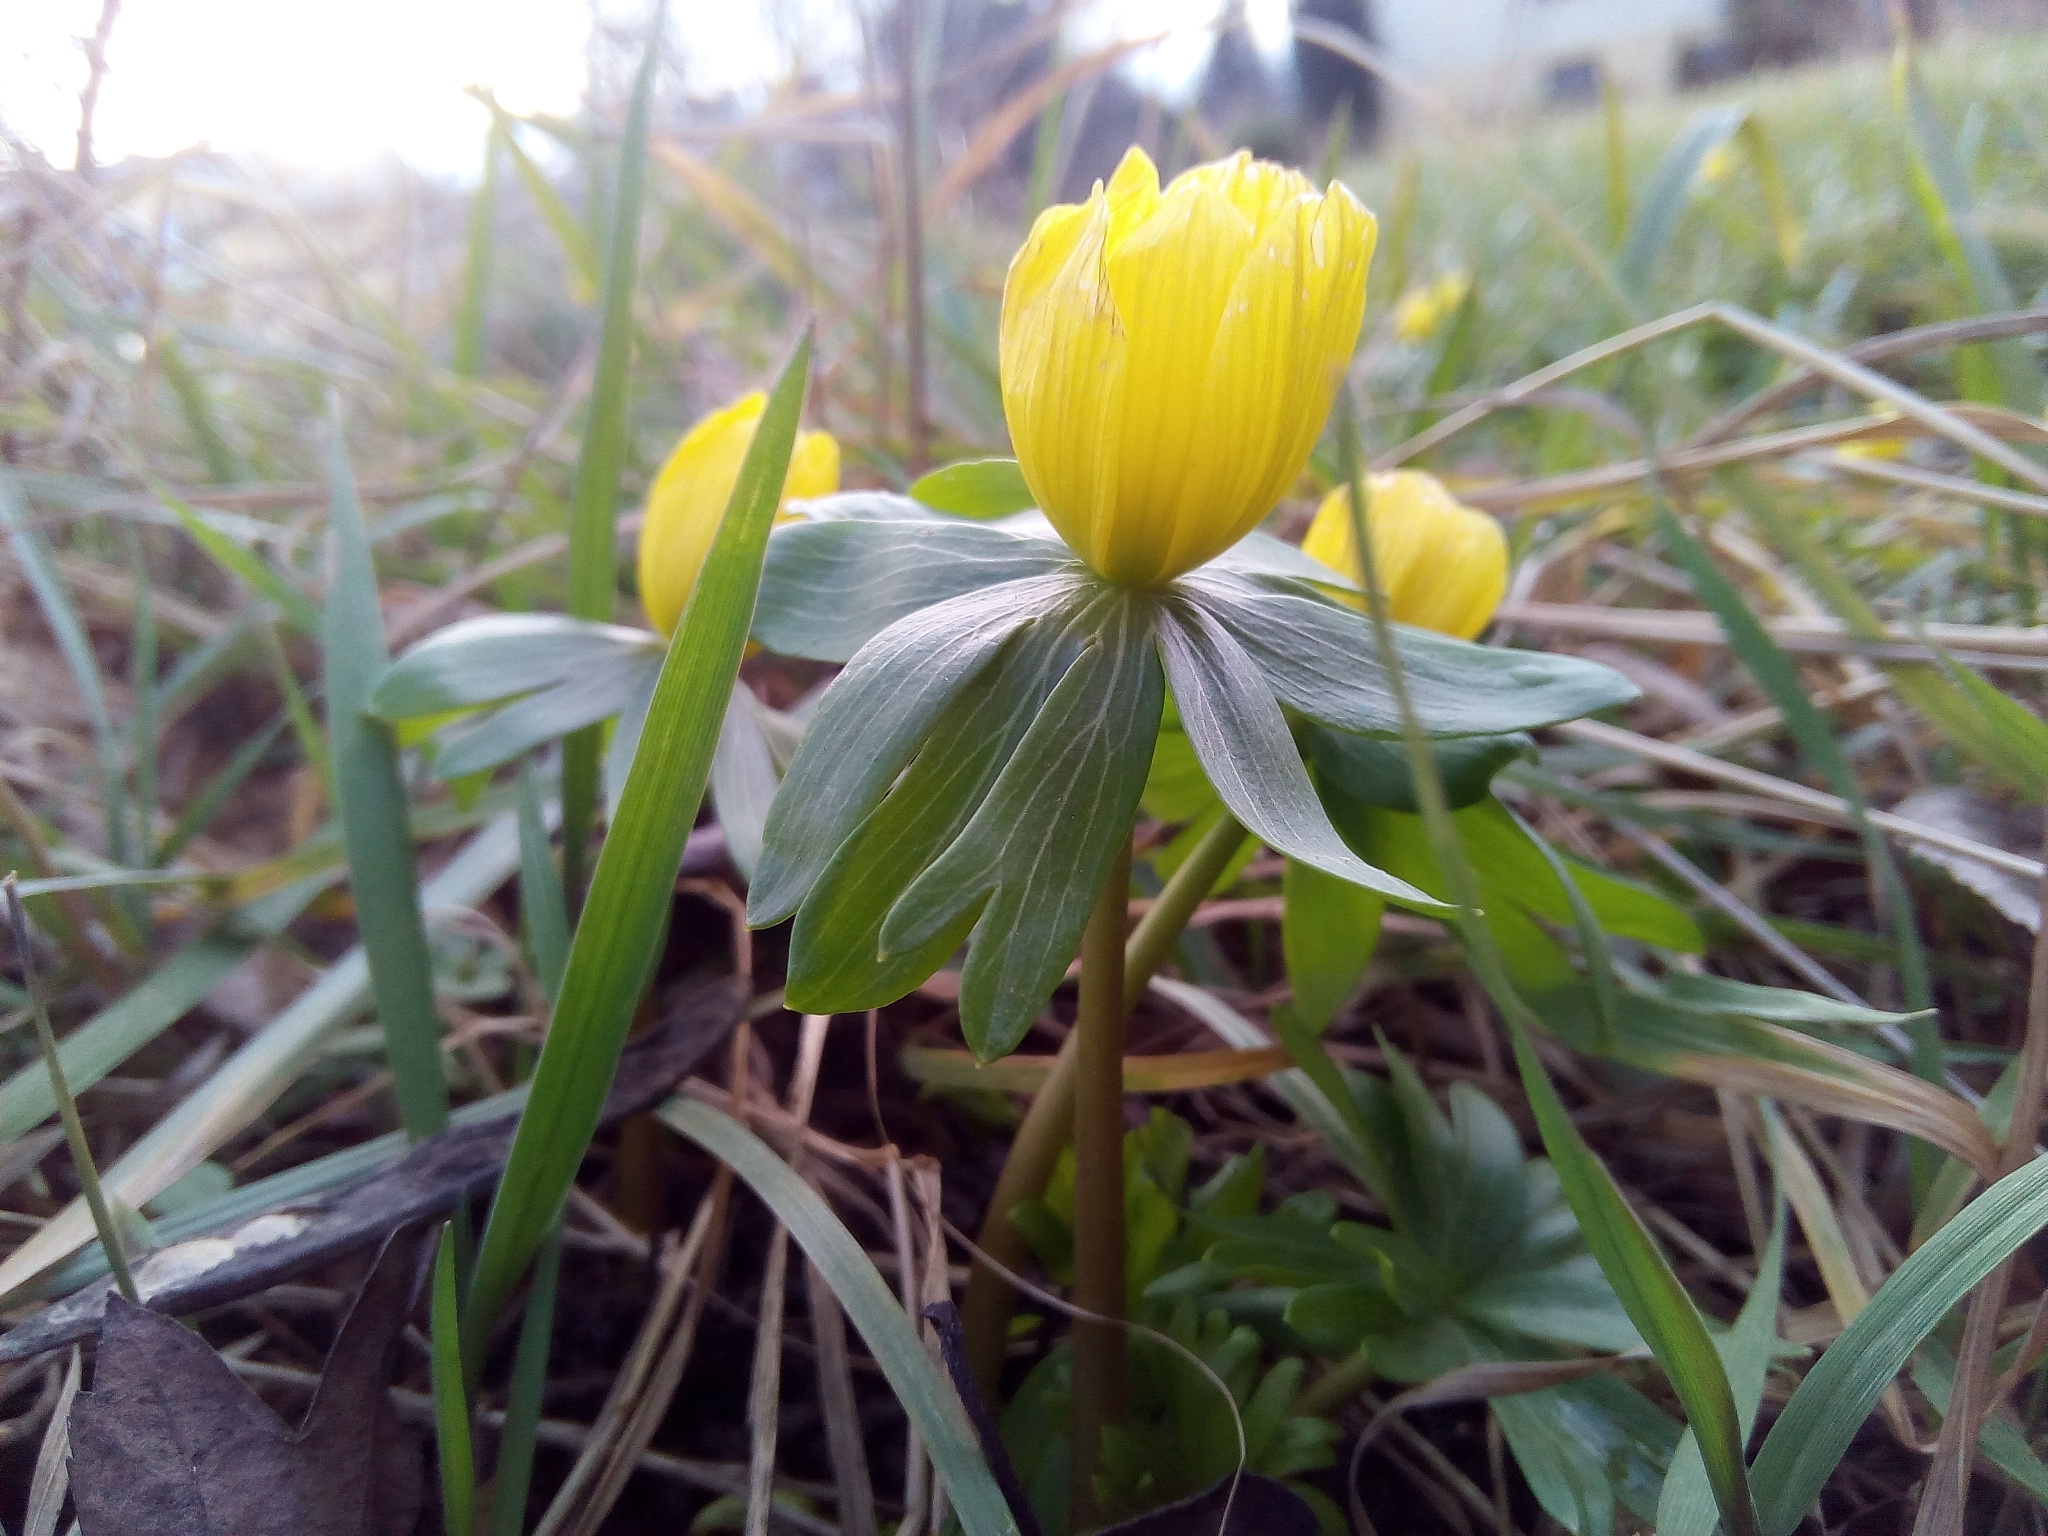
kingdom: Plantae
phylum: Tracheophyta
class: Magnoliopsida
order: Ranunculales
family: Ranunculaceae
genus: Eranthis
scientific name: Eranthis hyemalis
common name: Winter aconite
